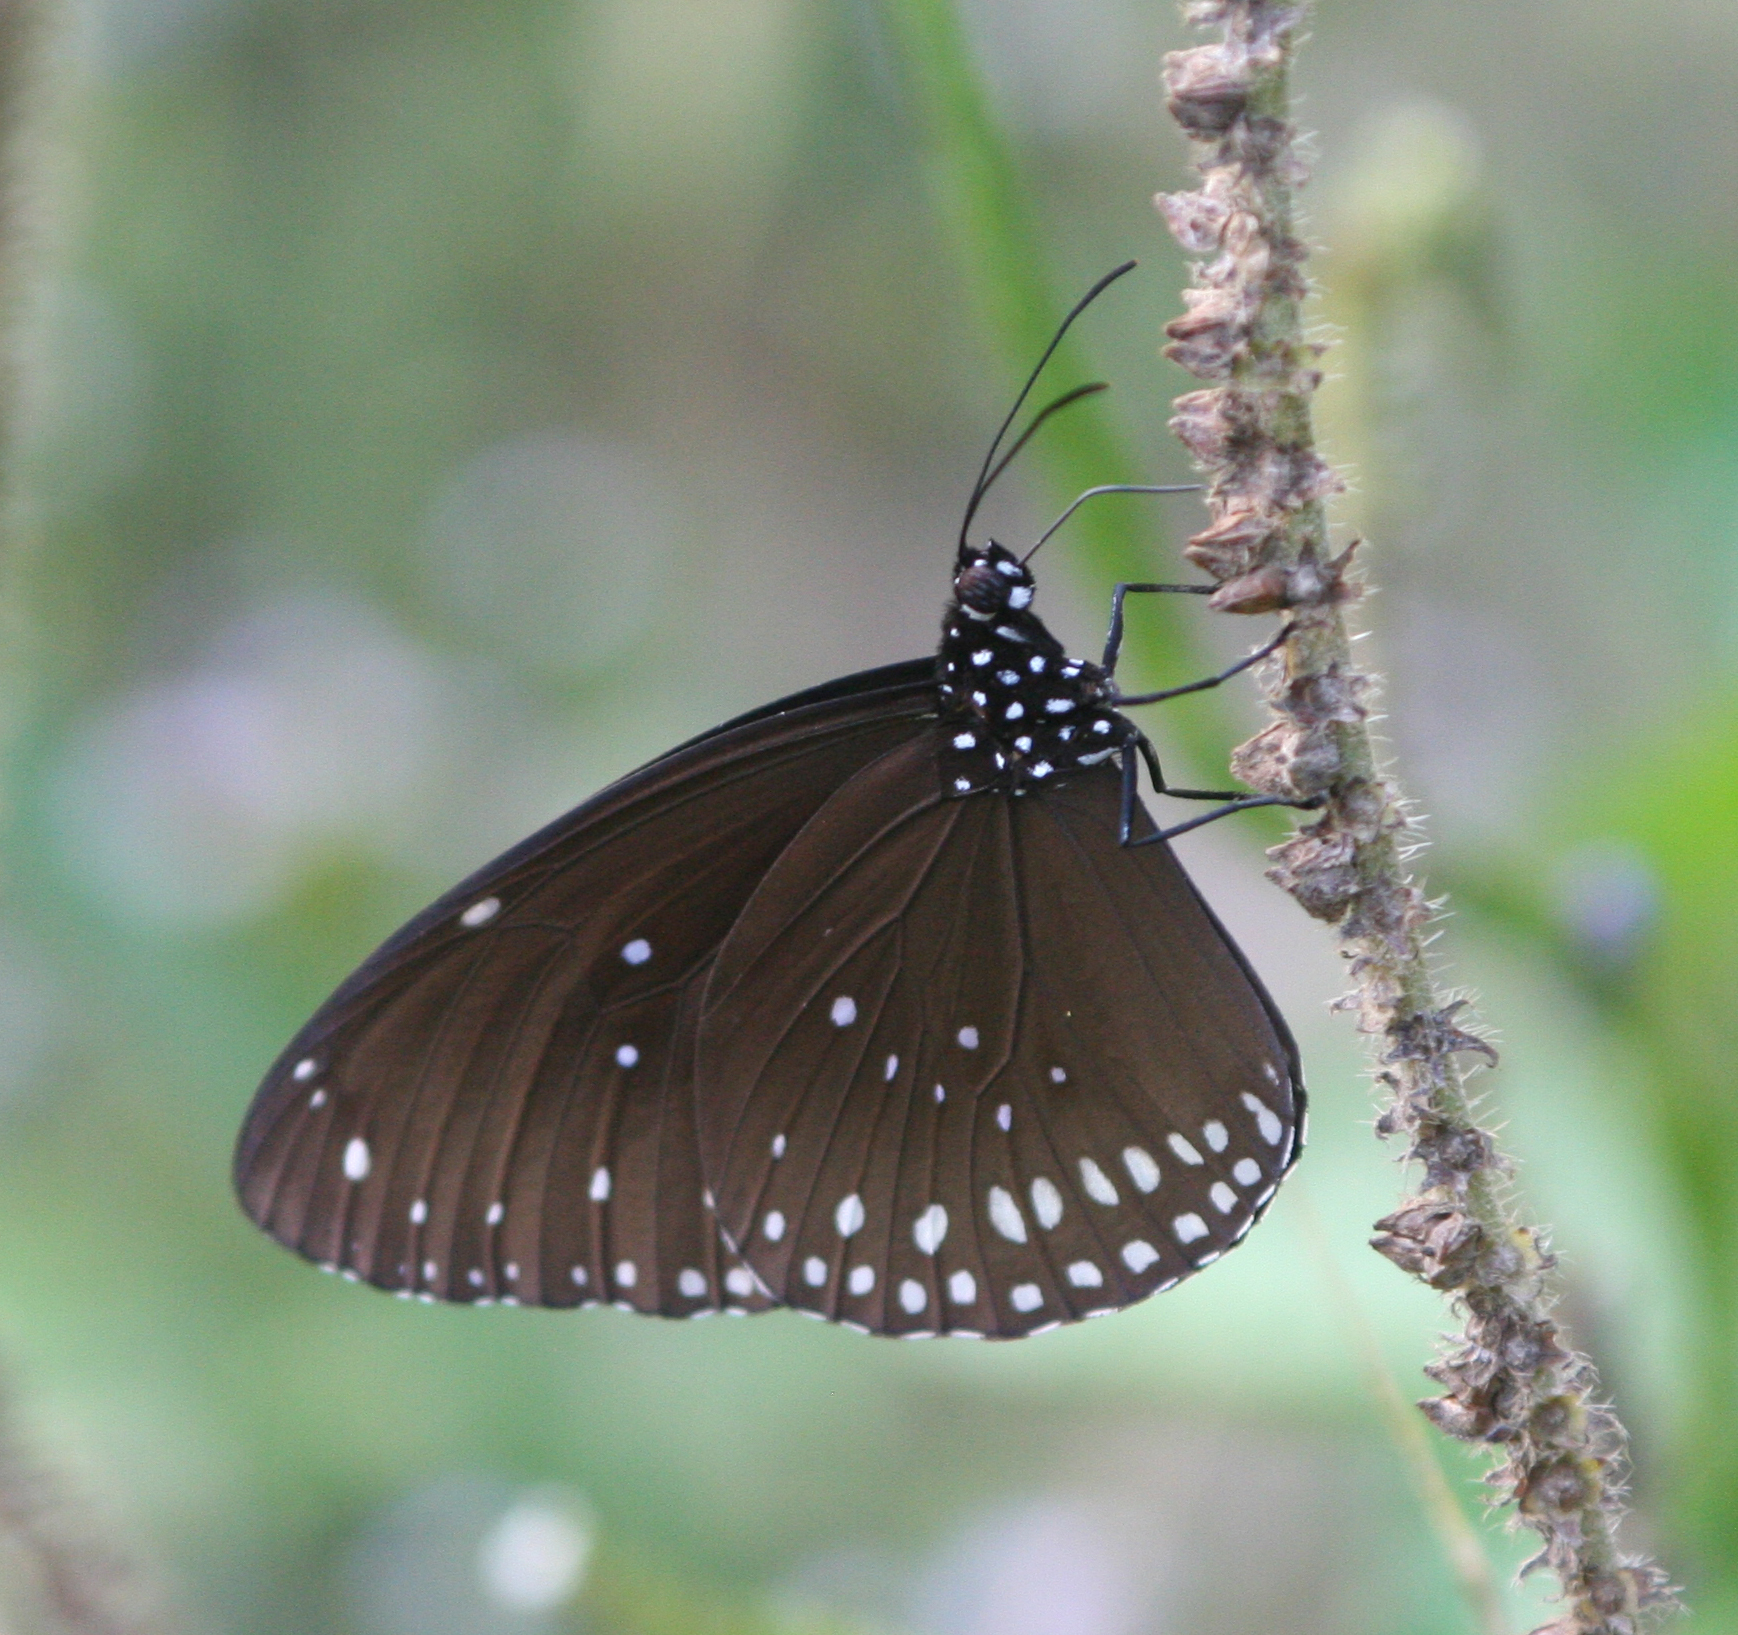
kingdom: Animalia
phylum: Arthropoda
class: Insecta
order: Lepidoptera
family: Nymphalidae
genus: Euploea
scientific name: Euploea core
